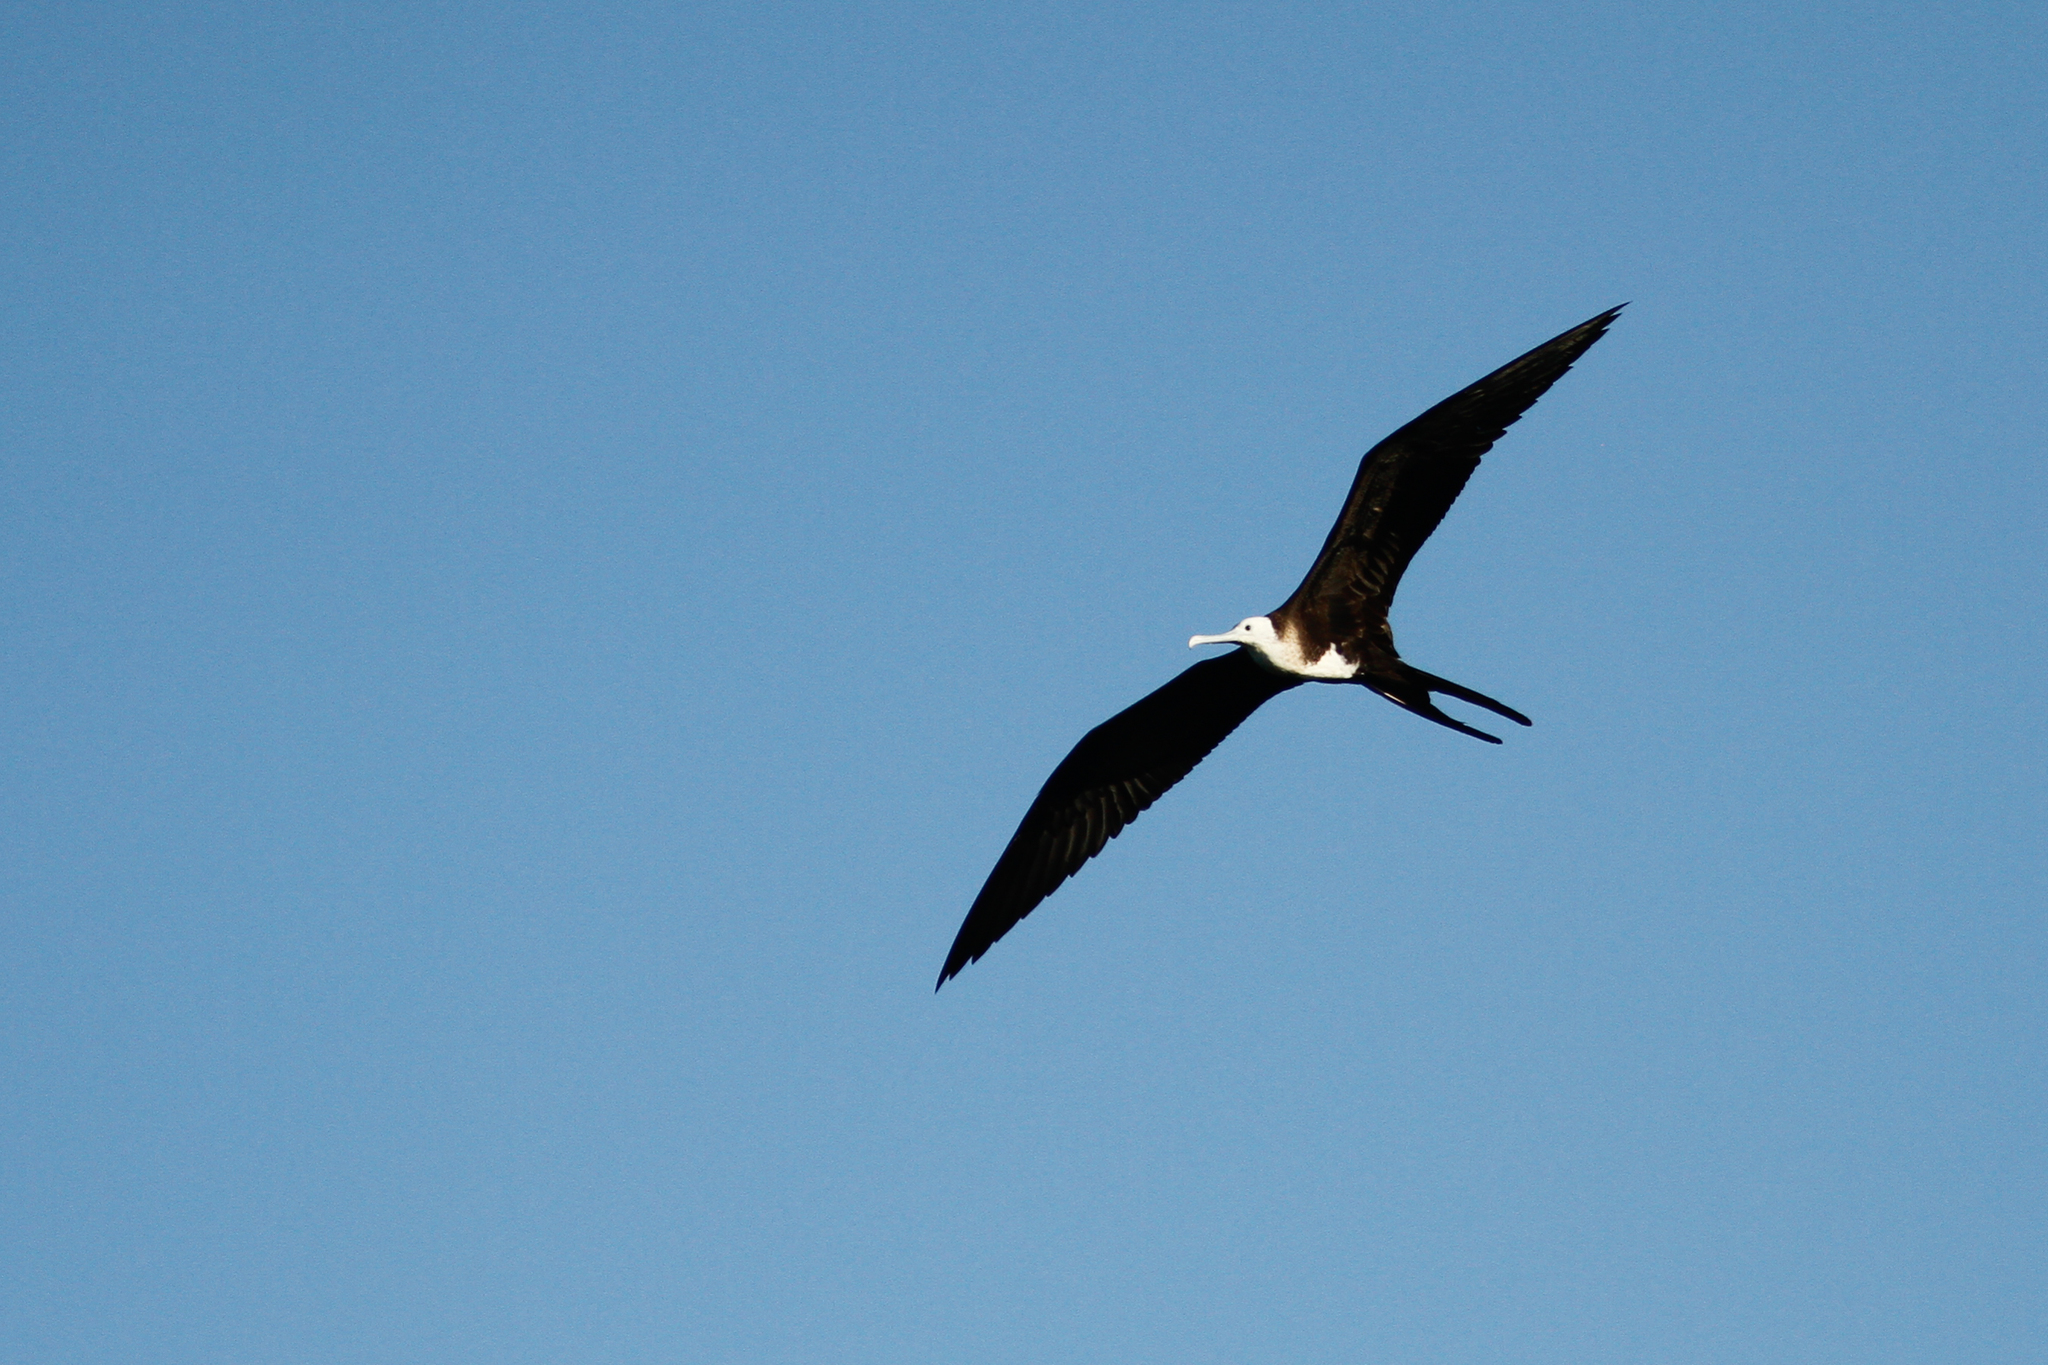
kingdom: Animalia
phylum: Chordata
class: Aves
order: Suliformes
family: Fregatidae
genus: Fregata
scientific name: Fregata magnificens
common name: Magnificent frigatebird
